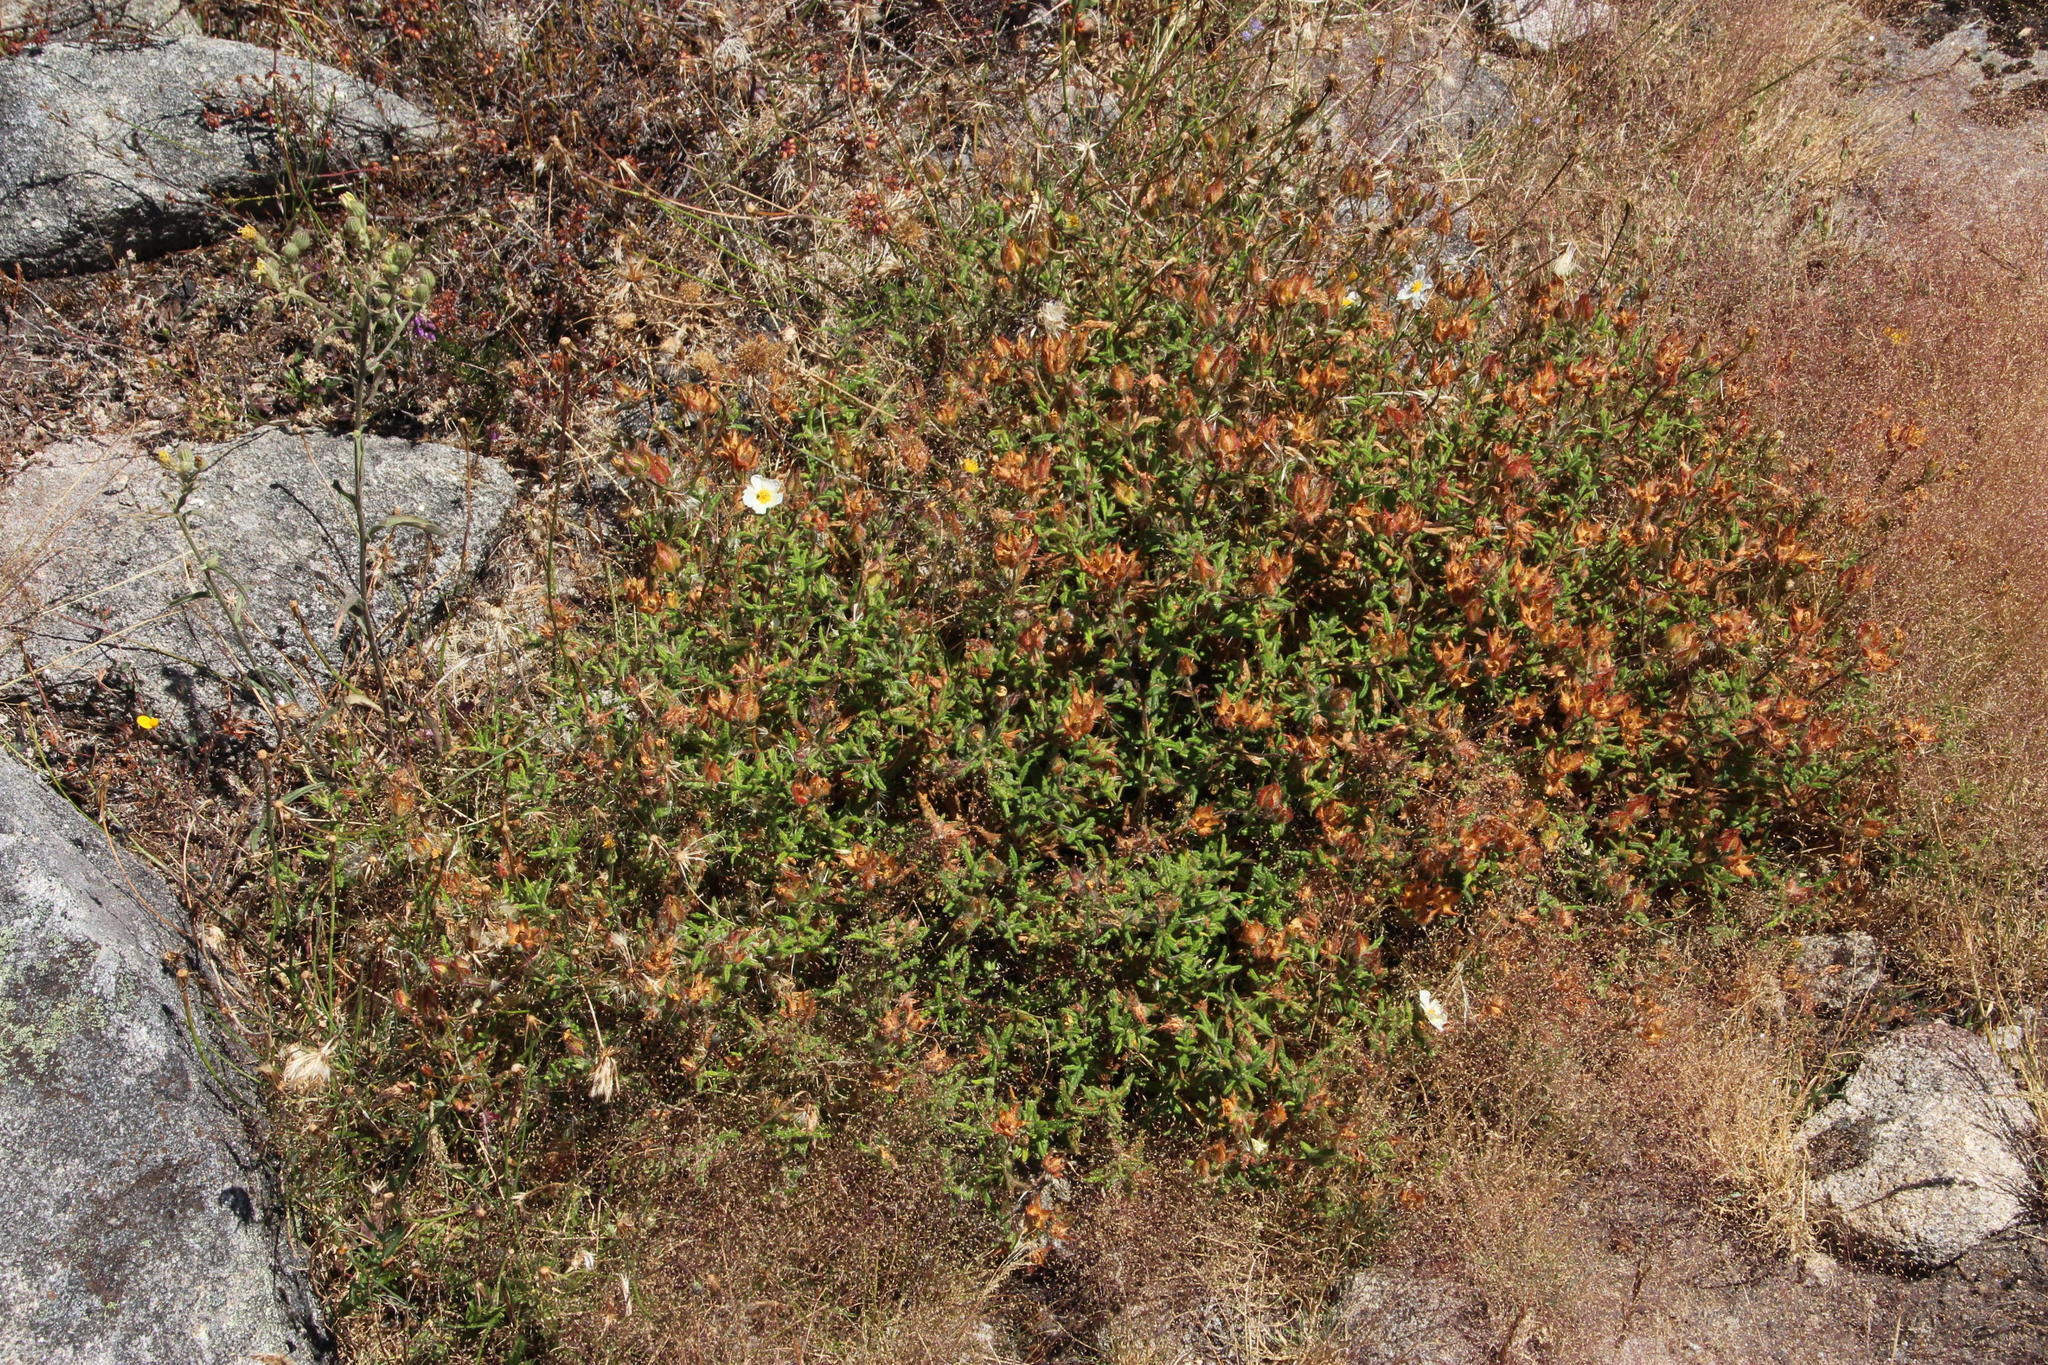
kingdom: Plantae
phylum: Tracheophyta
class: Magnoliopsida
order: Malvales
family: Cistaceae
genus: Cistus
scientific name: Cistus inflatus
